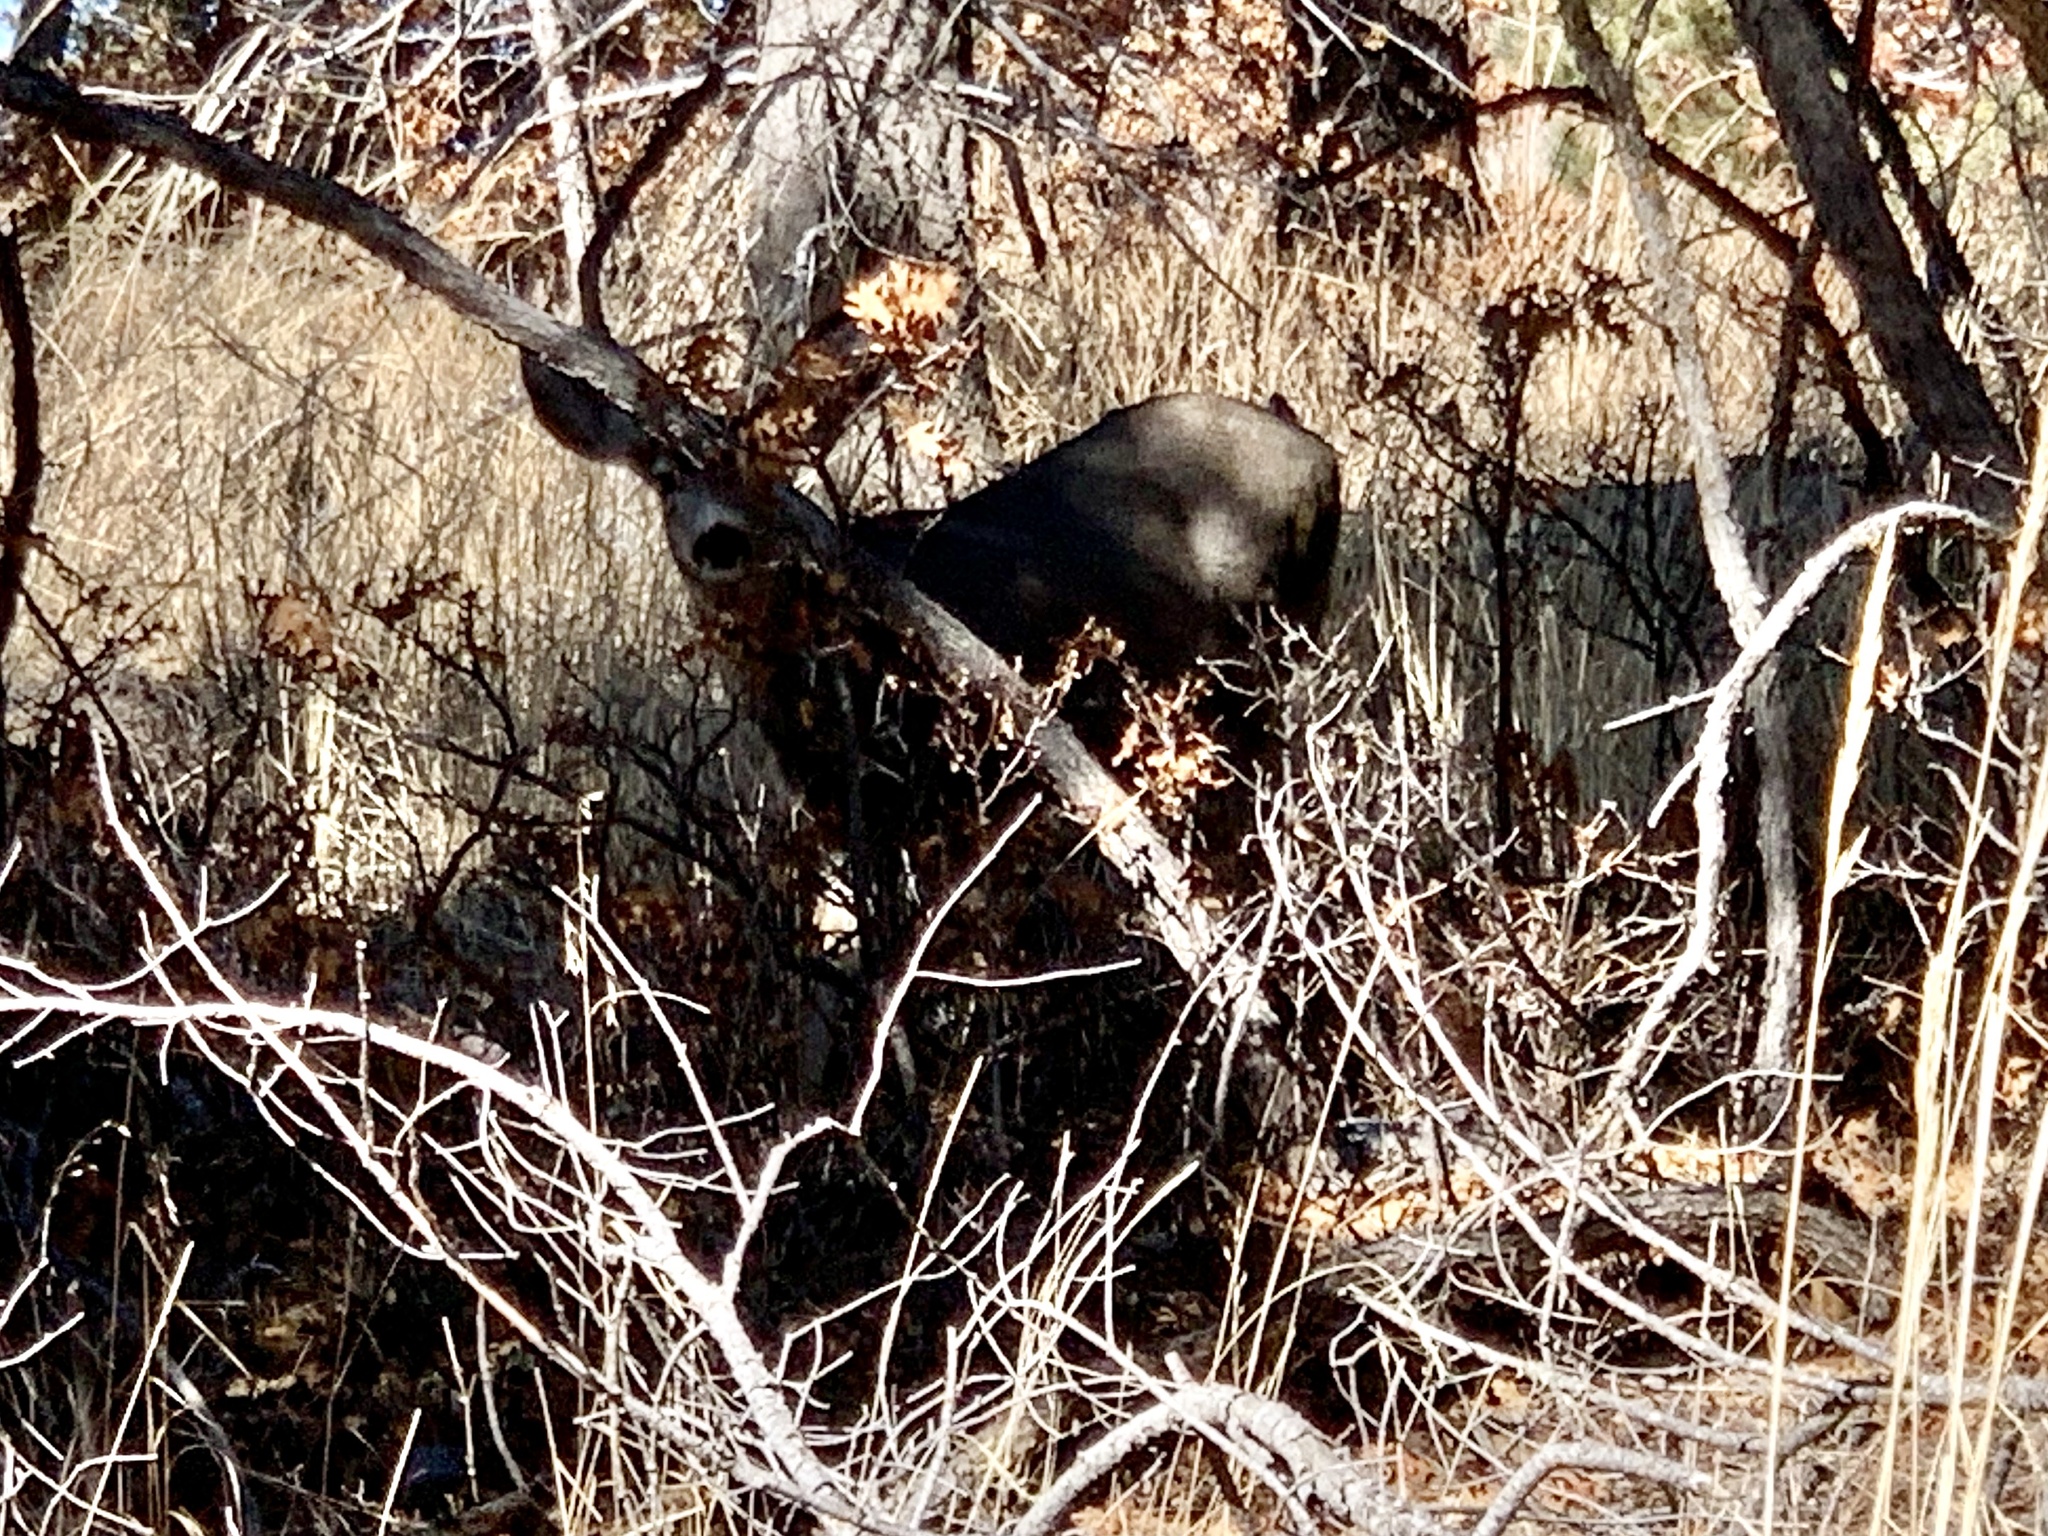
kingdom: Animalia
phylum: Chordata
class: Mammalia
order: Artiodactyla
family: Cervidae
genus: Odocoileus
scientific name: Odocoileus hemionus
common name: Mule deer
